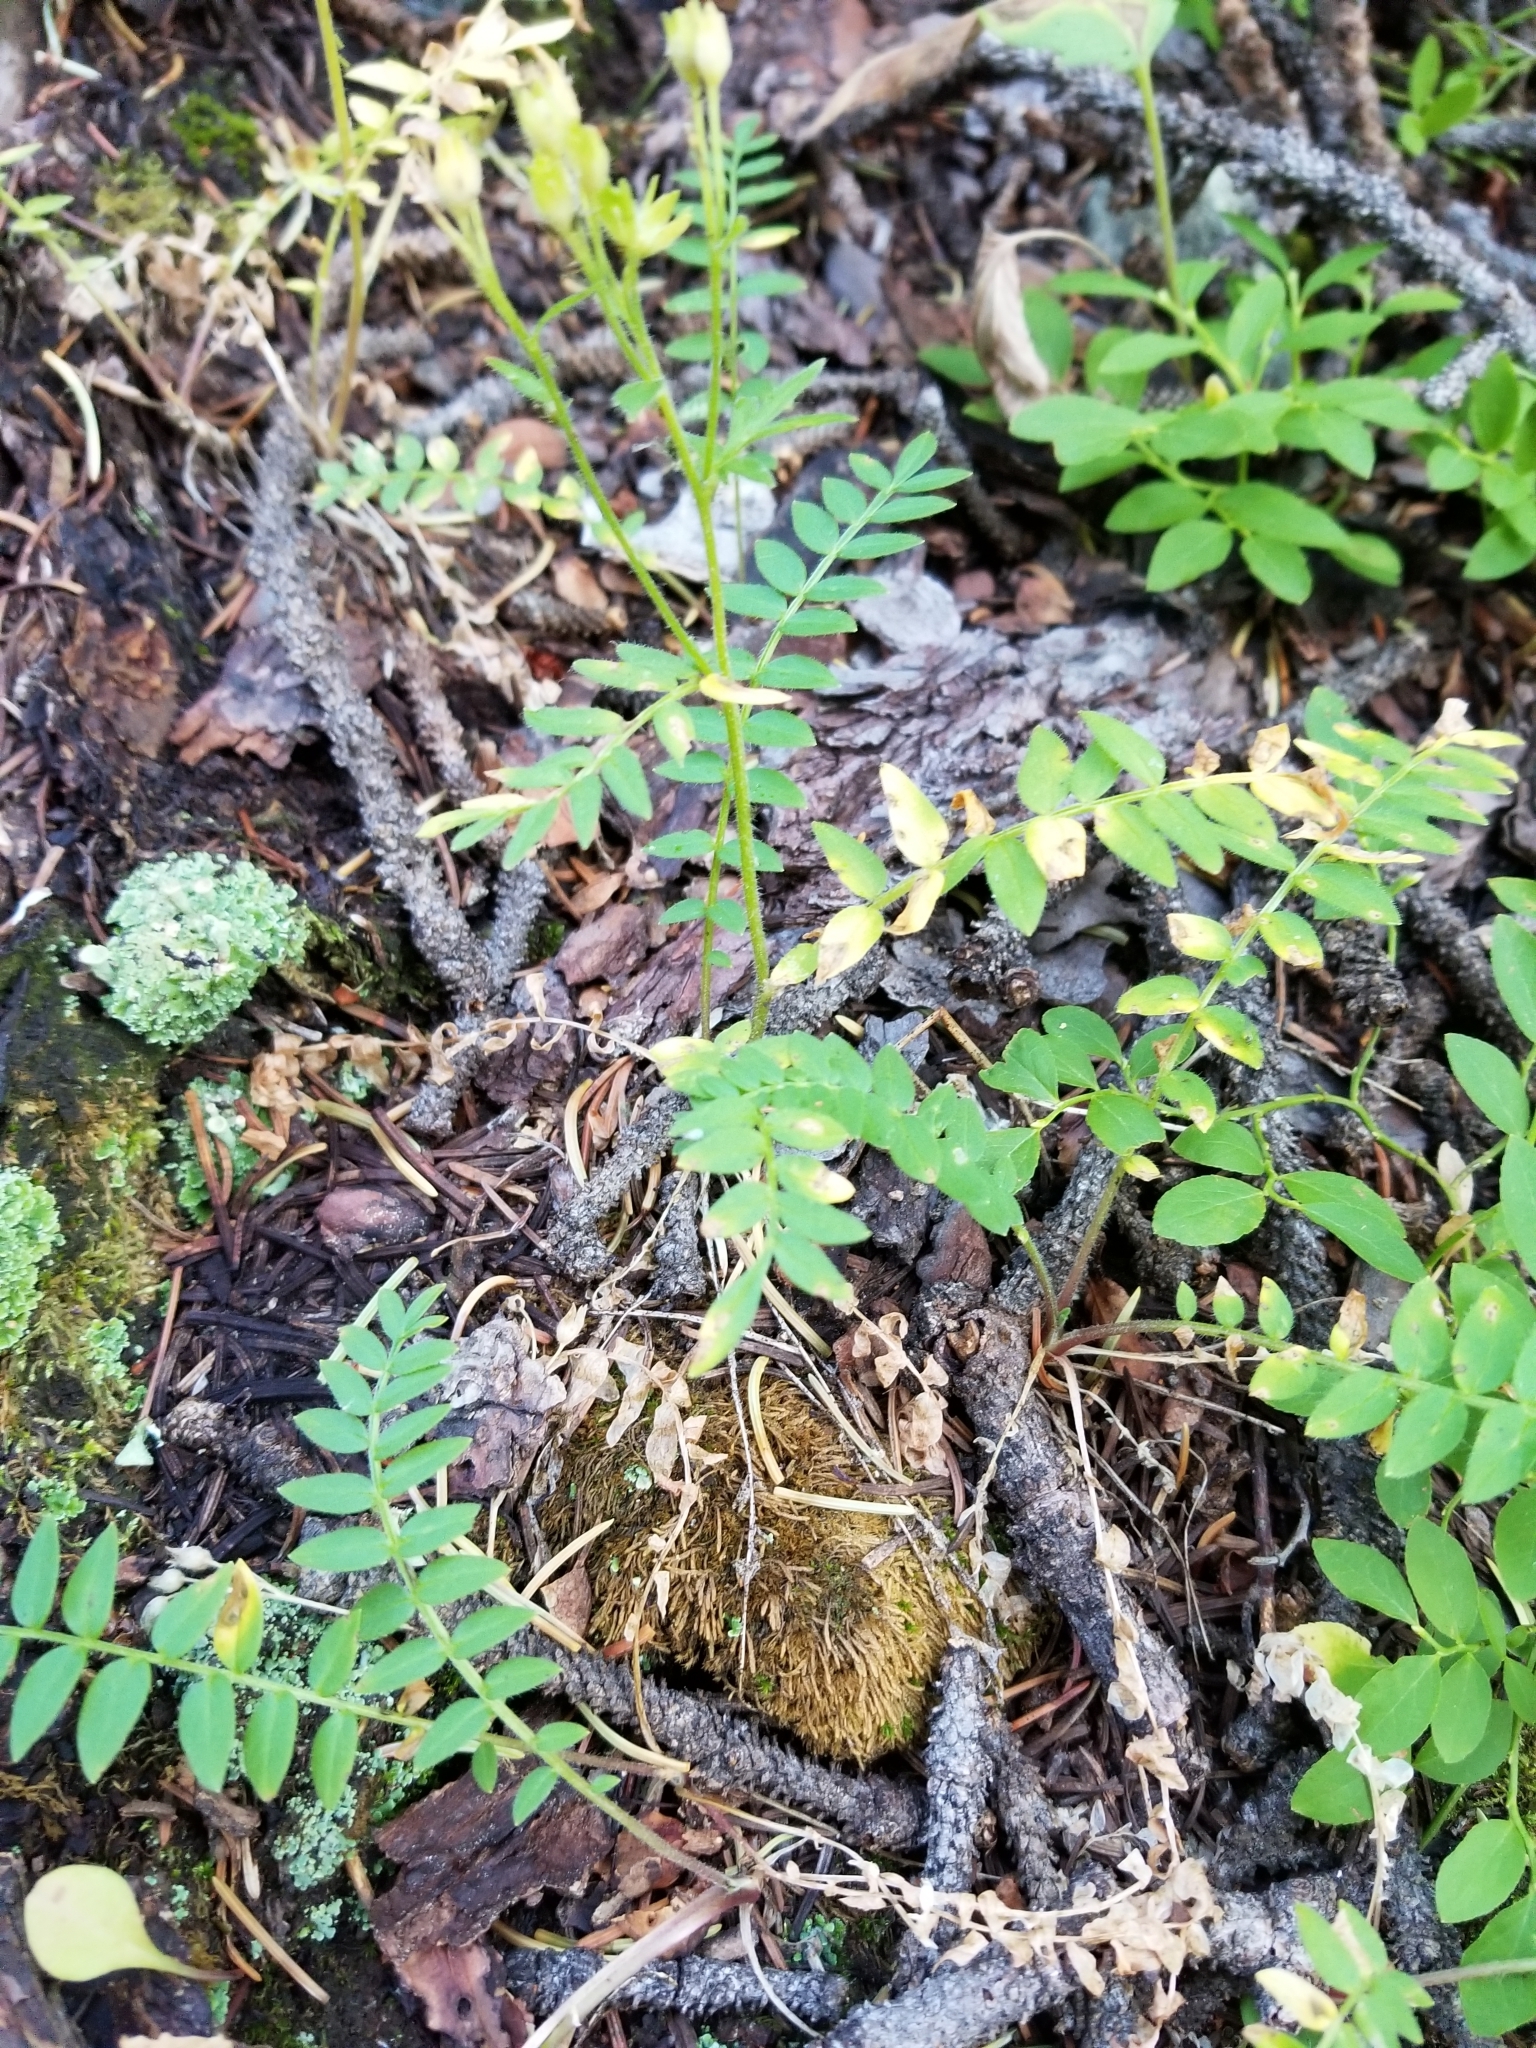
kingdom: Plantae
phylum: Tracheophyta
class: Magnoliopsida
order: Ericales
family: Polemoniaceae
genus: Polemonium
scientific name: Polemonium pulcherrimum
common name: Short jacob's-ladder
